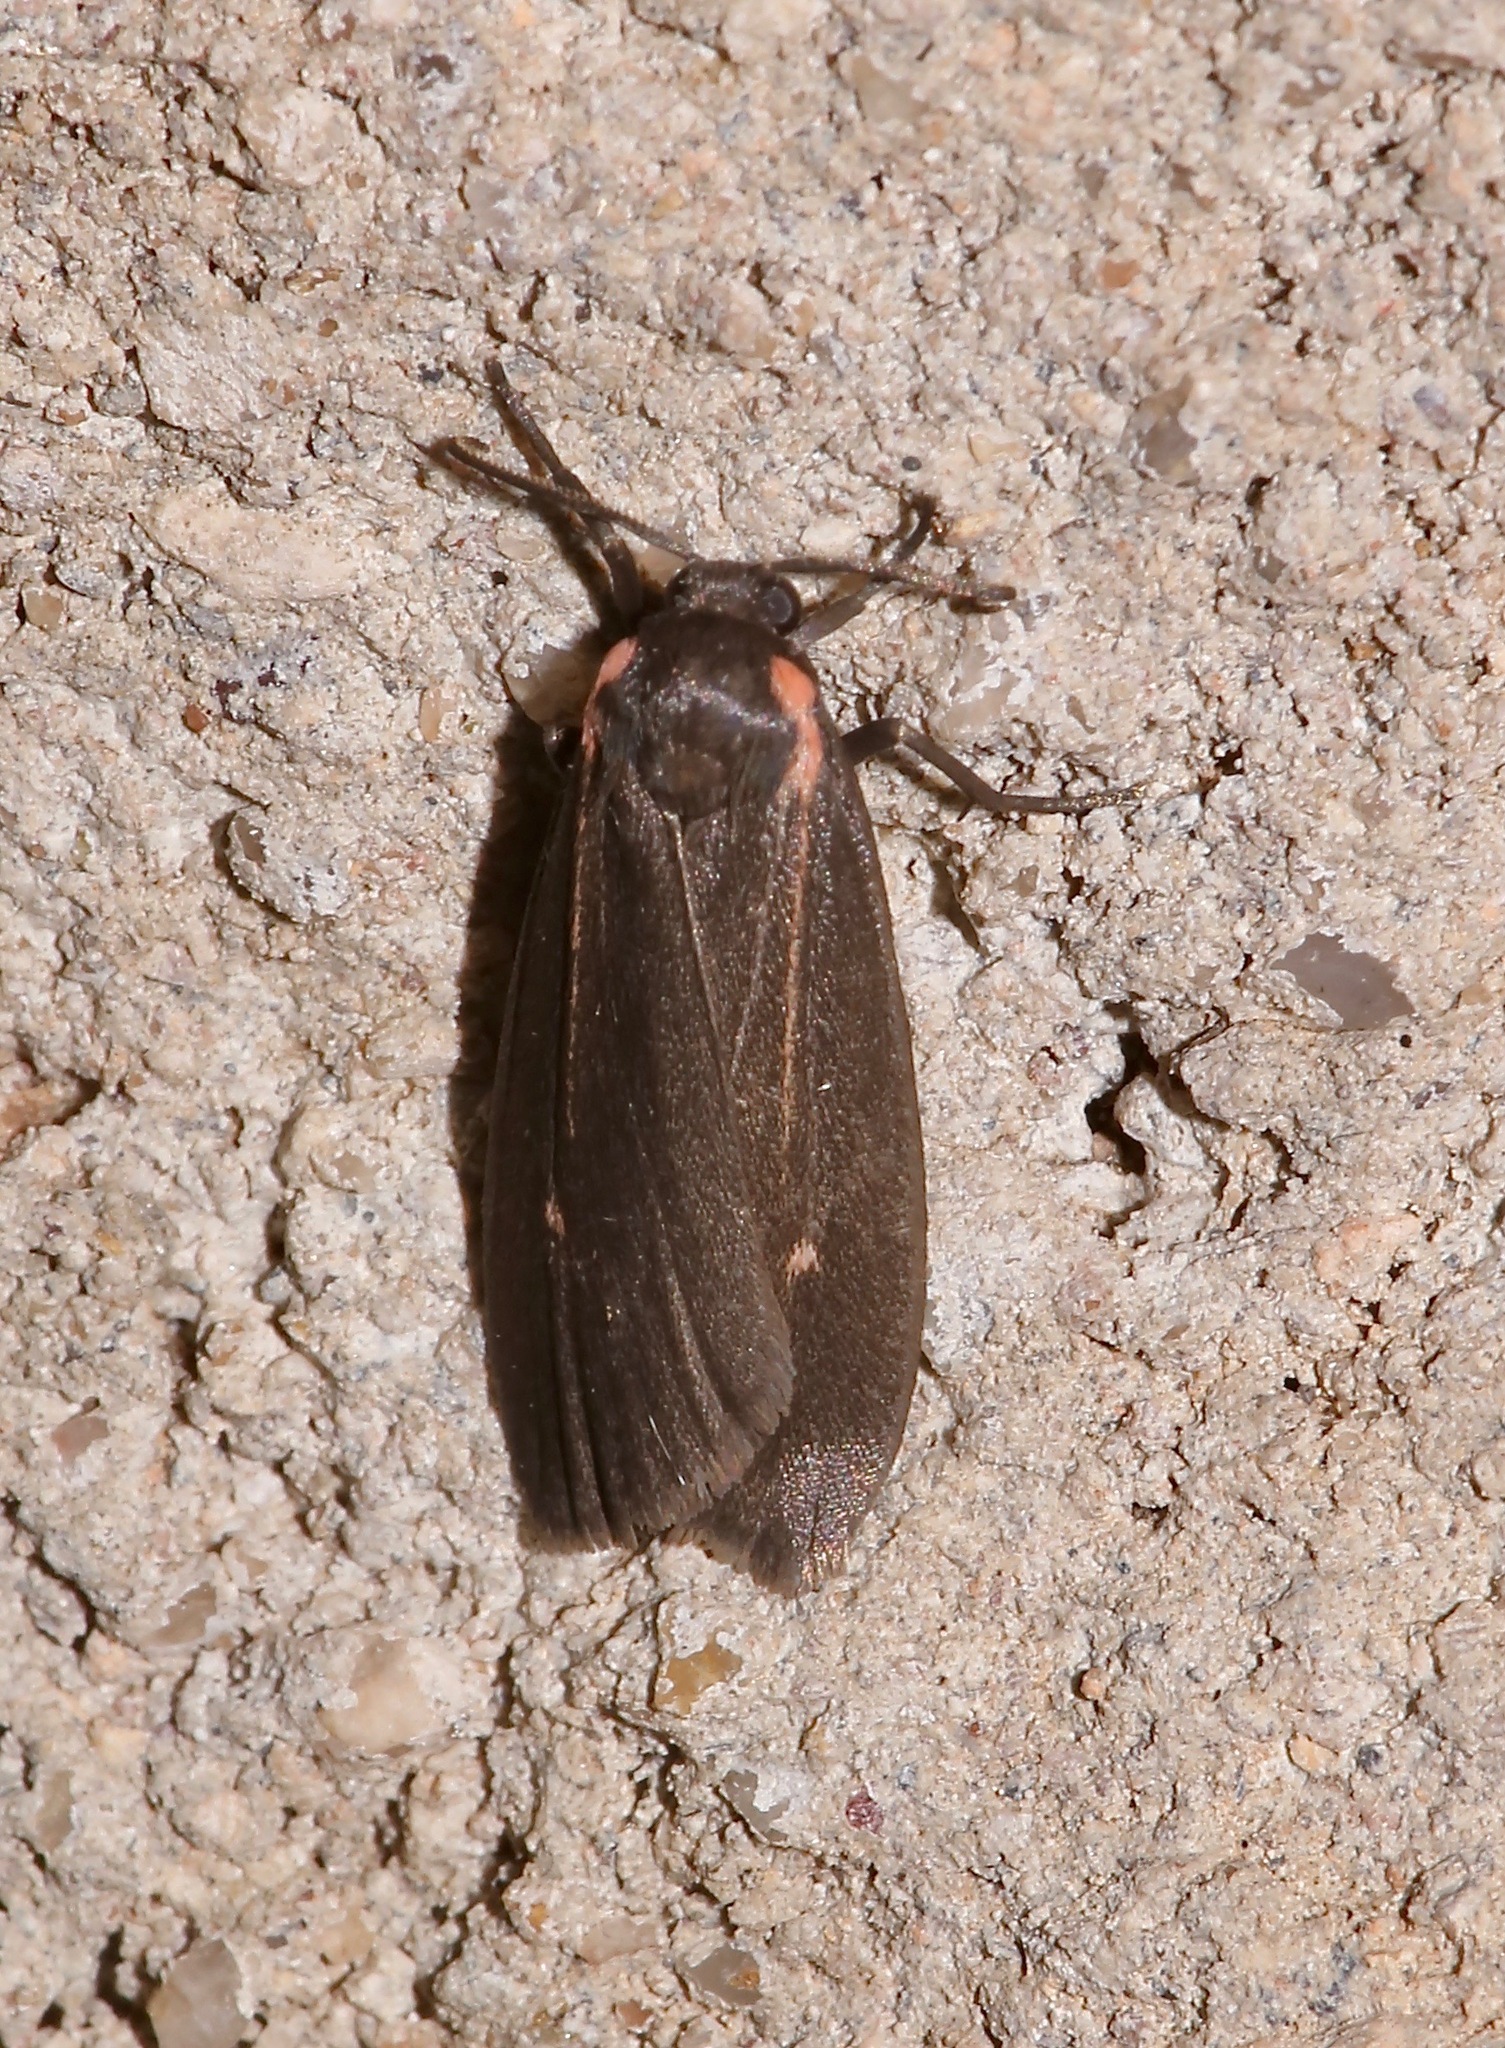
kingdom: Animalia
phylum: Arthropoda
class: Insecta
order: Lepidoptera
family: Erebidae
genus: Hypoprepia
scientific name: Hypoprepia inculta
